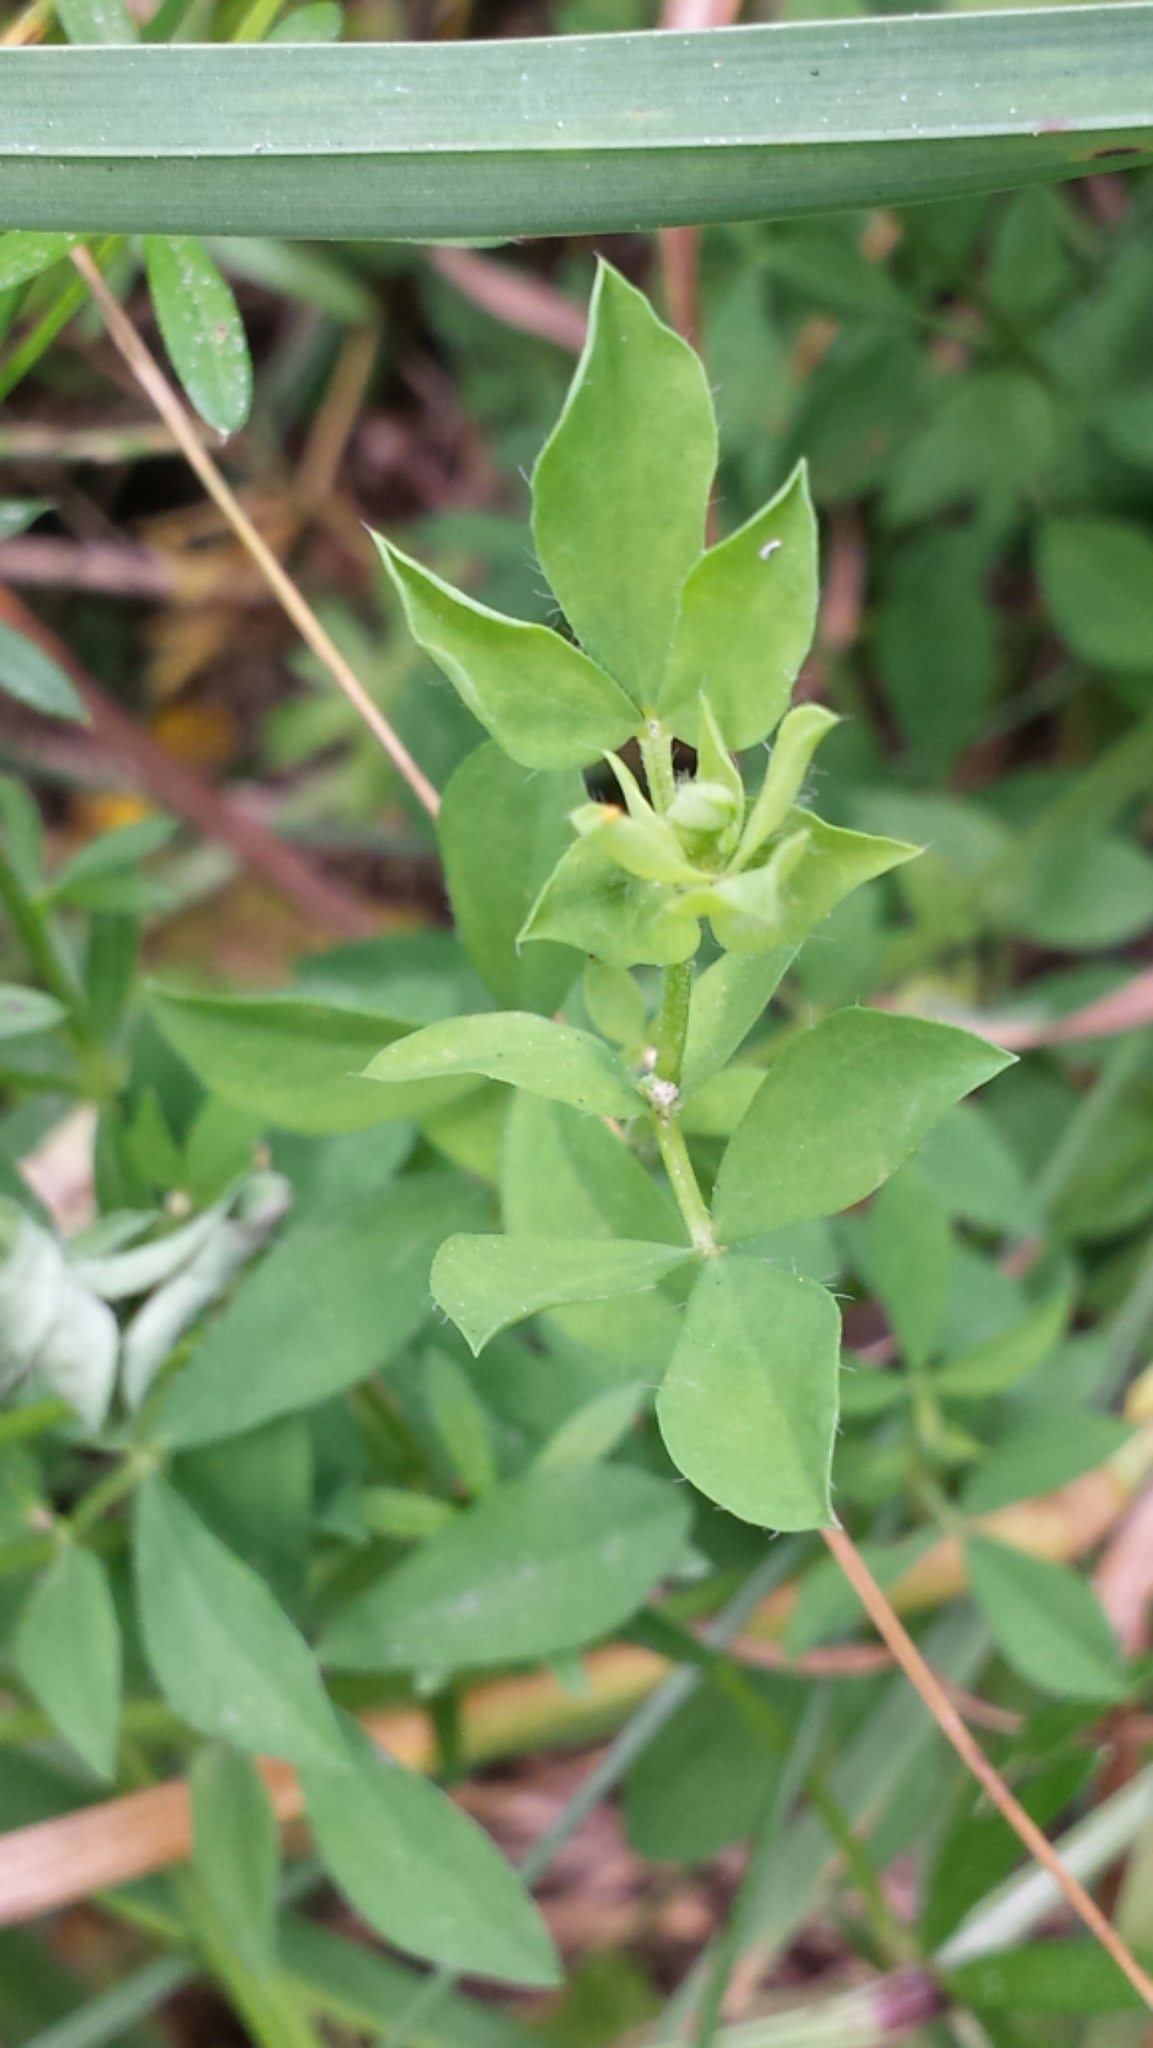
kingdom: Plantae
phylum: Tracheophyta
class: Magnoliopsida
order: Fabales
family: Fabaceae
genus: Lotus
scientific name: Lotus corniculatus
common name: Common bird's-foot-trefoil
